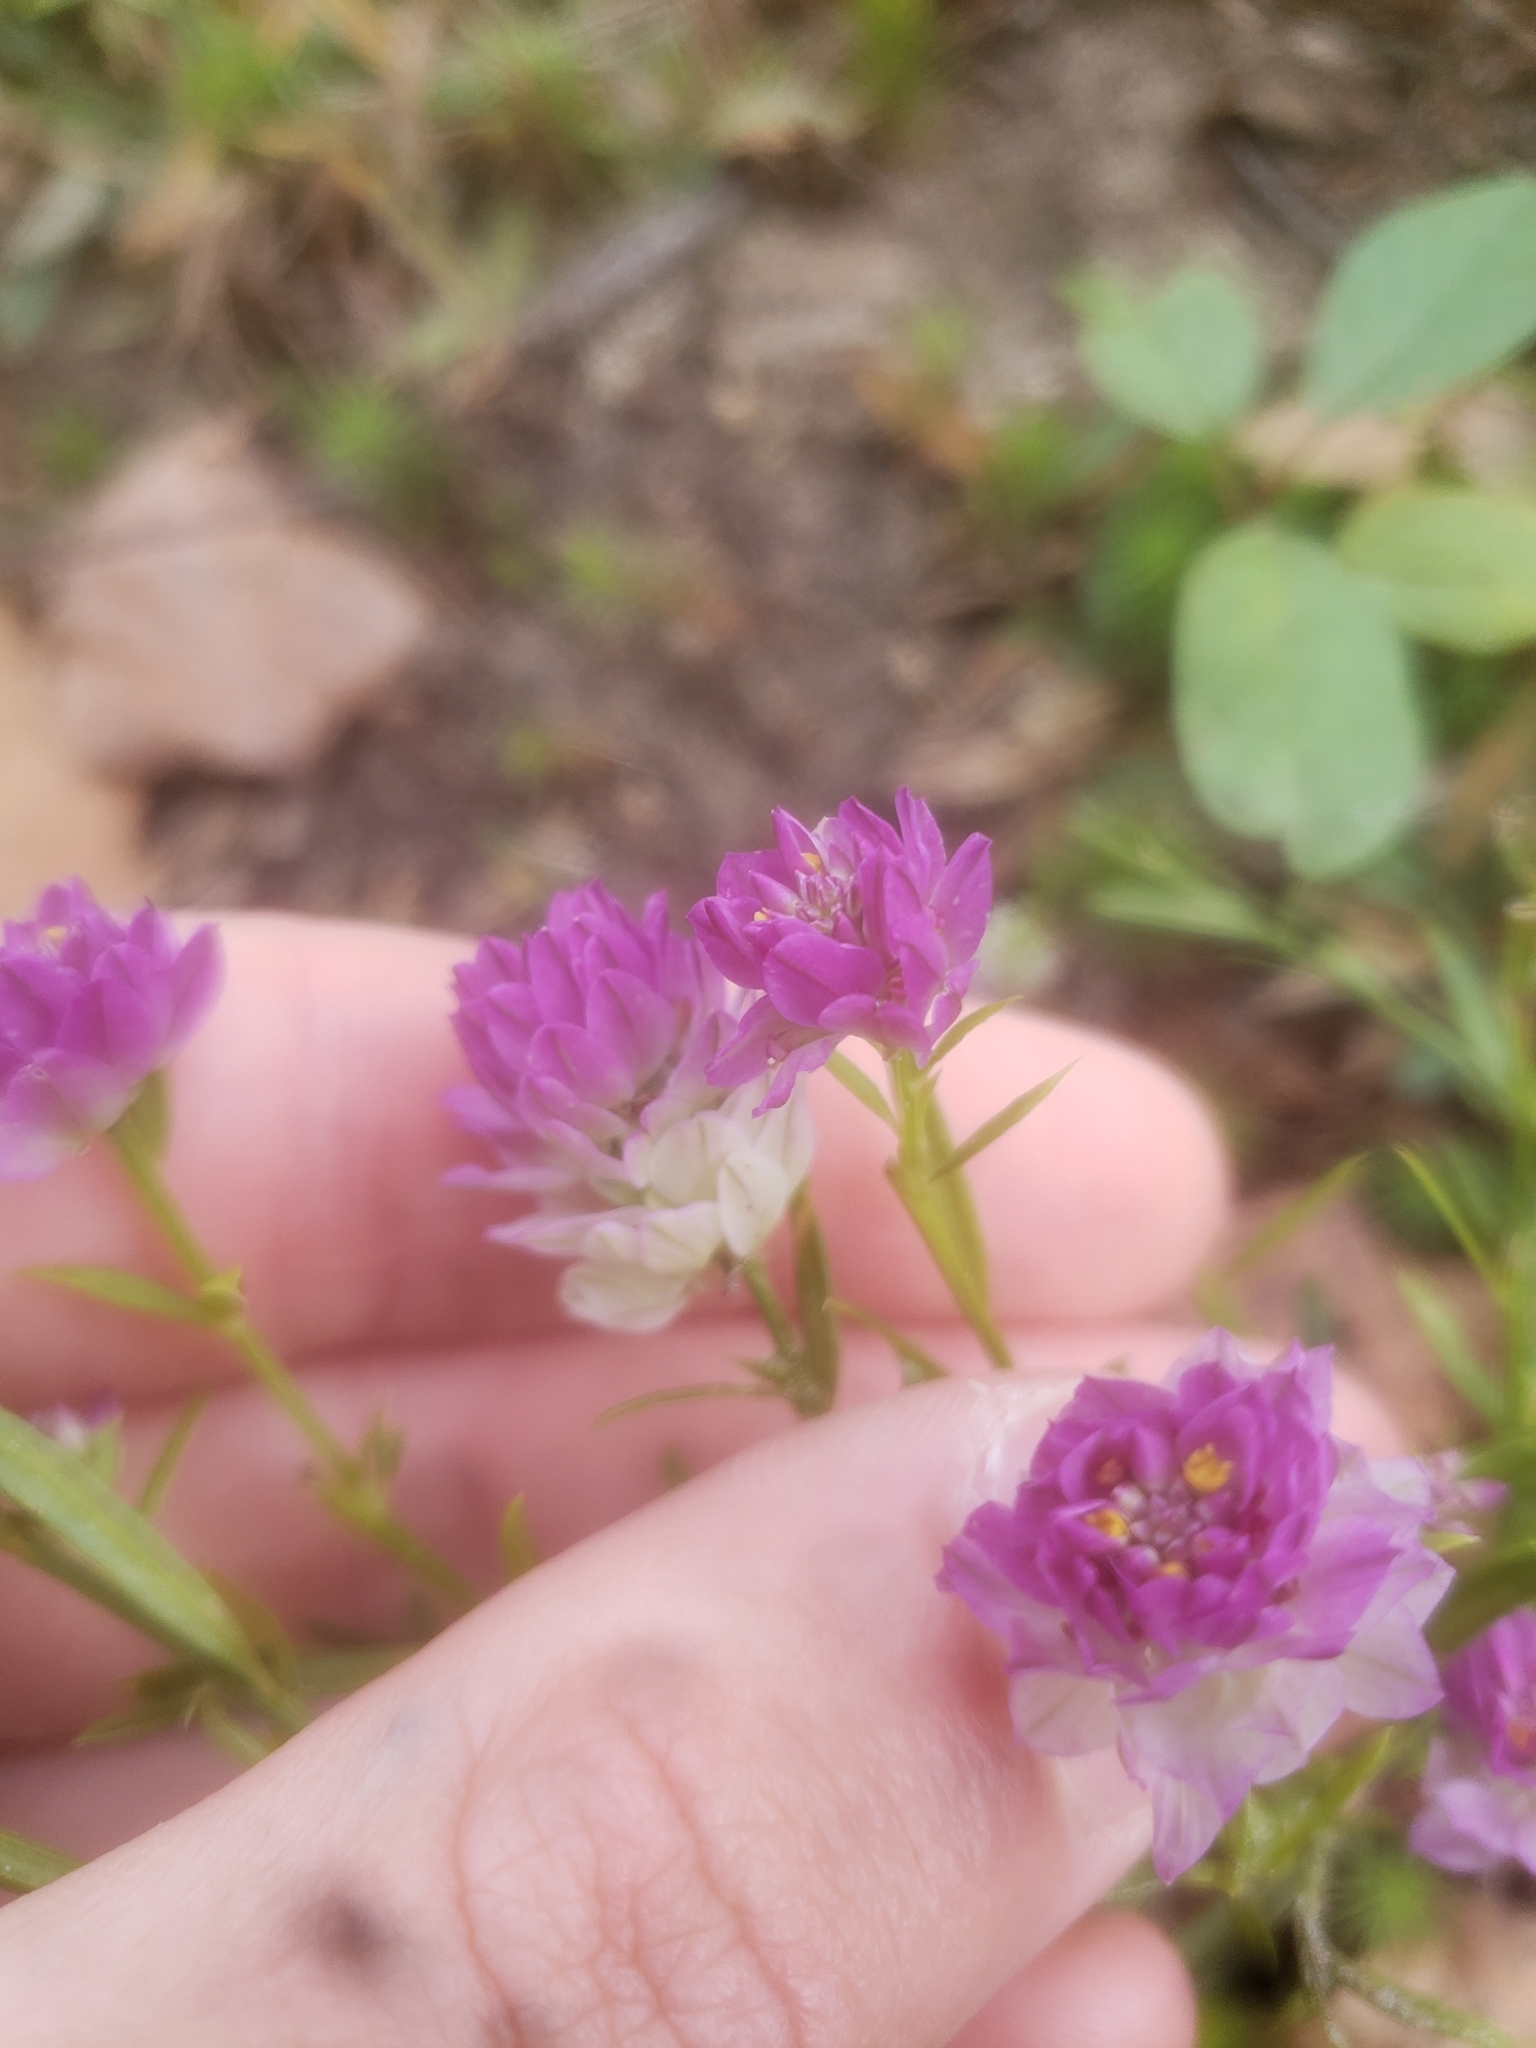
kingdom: Plantae
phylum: Tracheophyta
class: Magnoliopsida
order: Fabales
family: Polygalaceae
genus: Polygala
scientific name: Polygala sanguinea
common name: Blood milkwort
